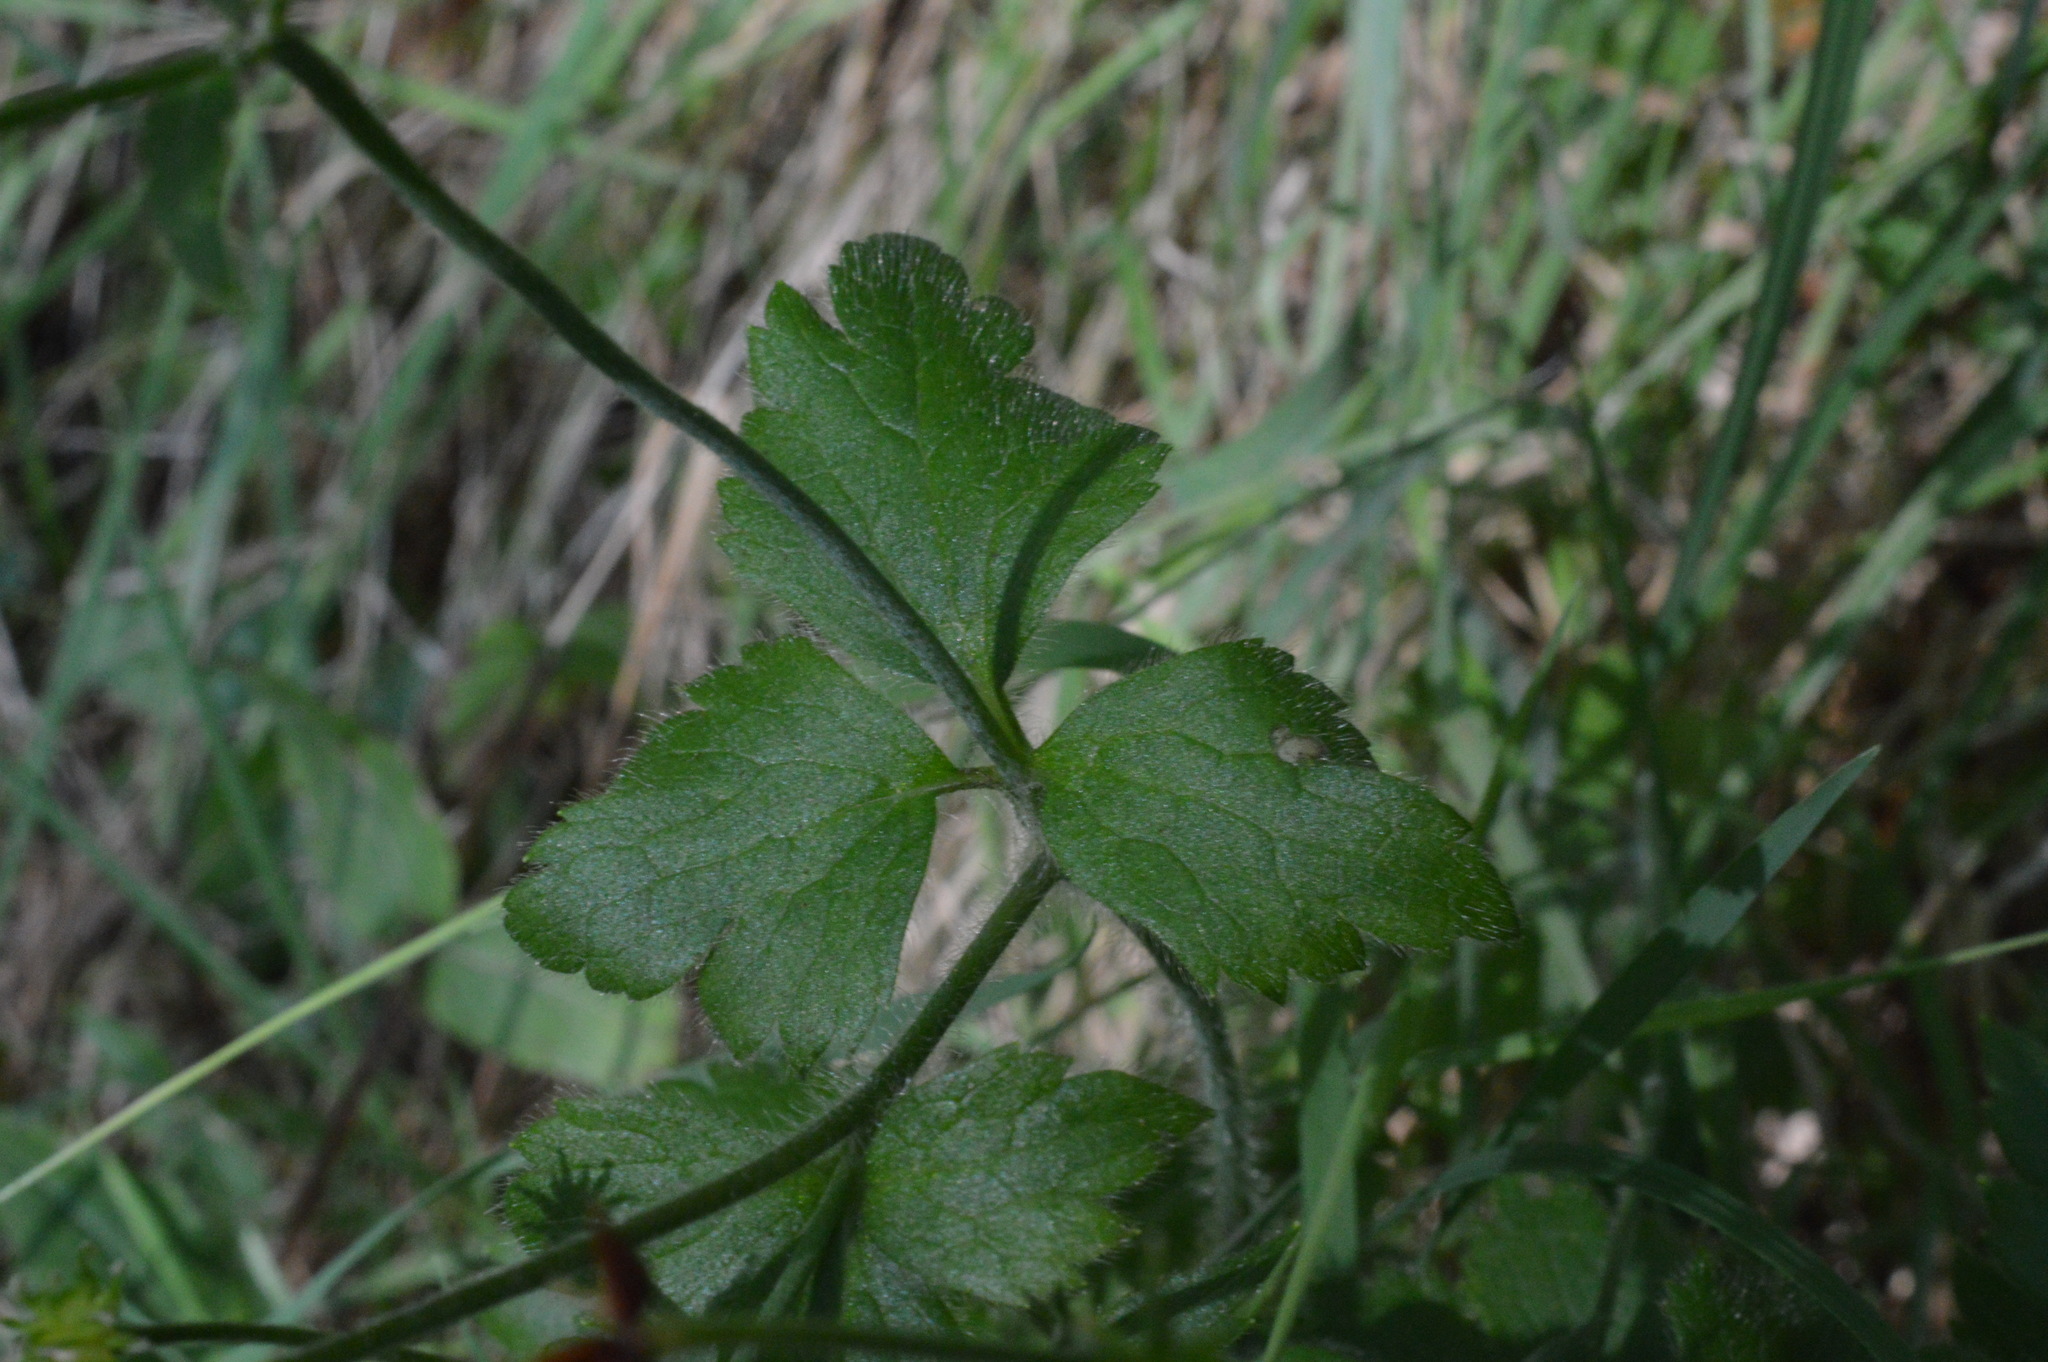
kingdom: Plantae
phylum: Tracheophyta
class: Magnoliopsida
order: Ranunculales
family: Ranunculaceae
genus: Ranunculus
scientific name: Ranunculus repens
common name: Creeping buttercup
